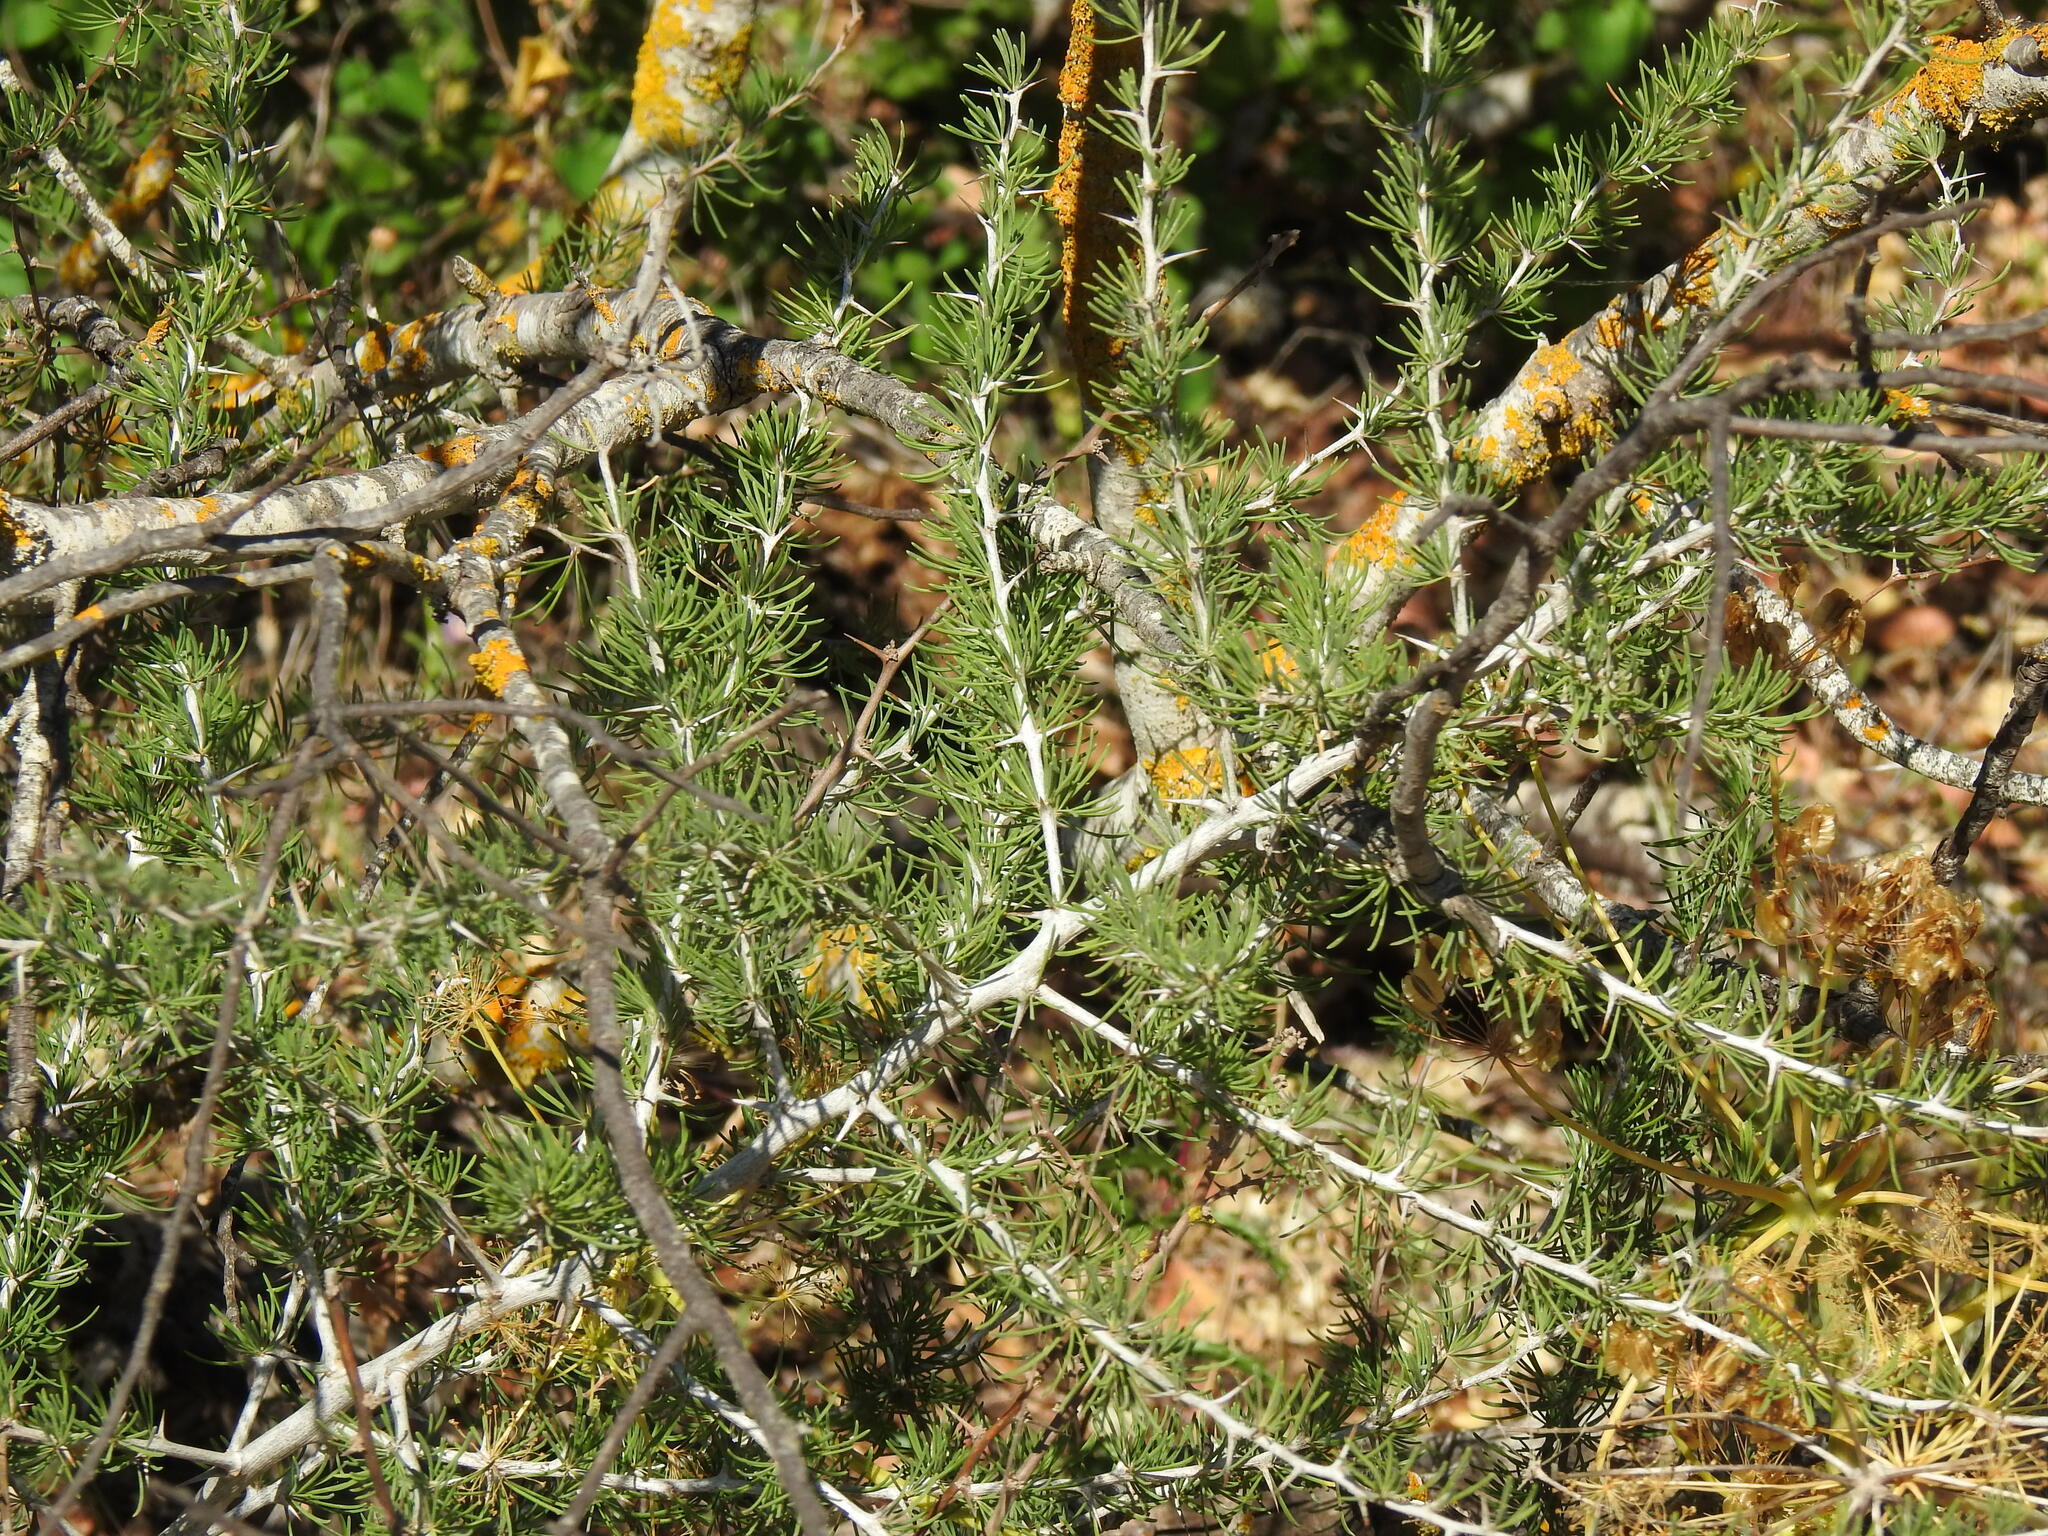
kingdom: Plantae
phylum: Tracheophyta
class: Liliopsida
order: Asparagales
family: Asparagaceae
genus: Asparagus
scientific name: Asparagus albus
